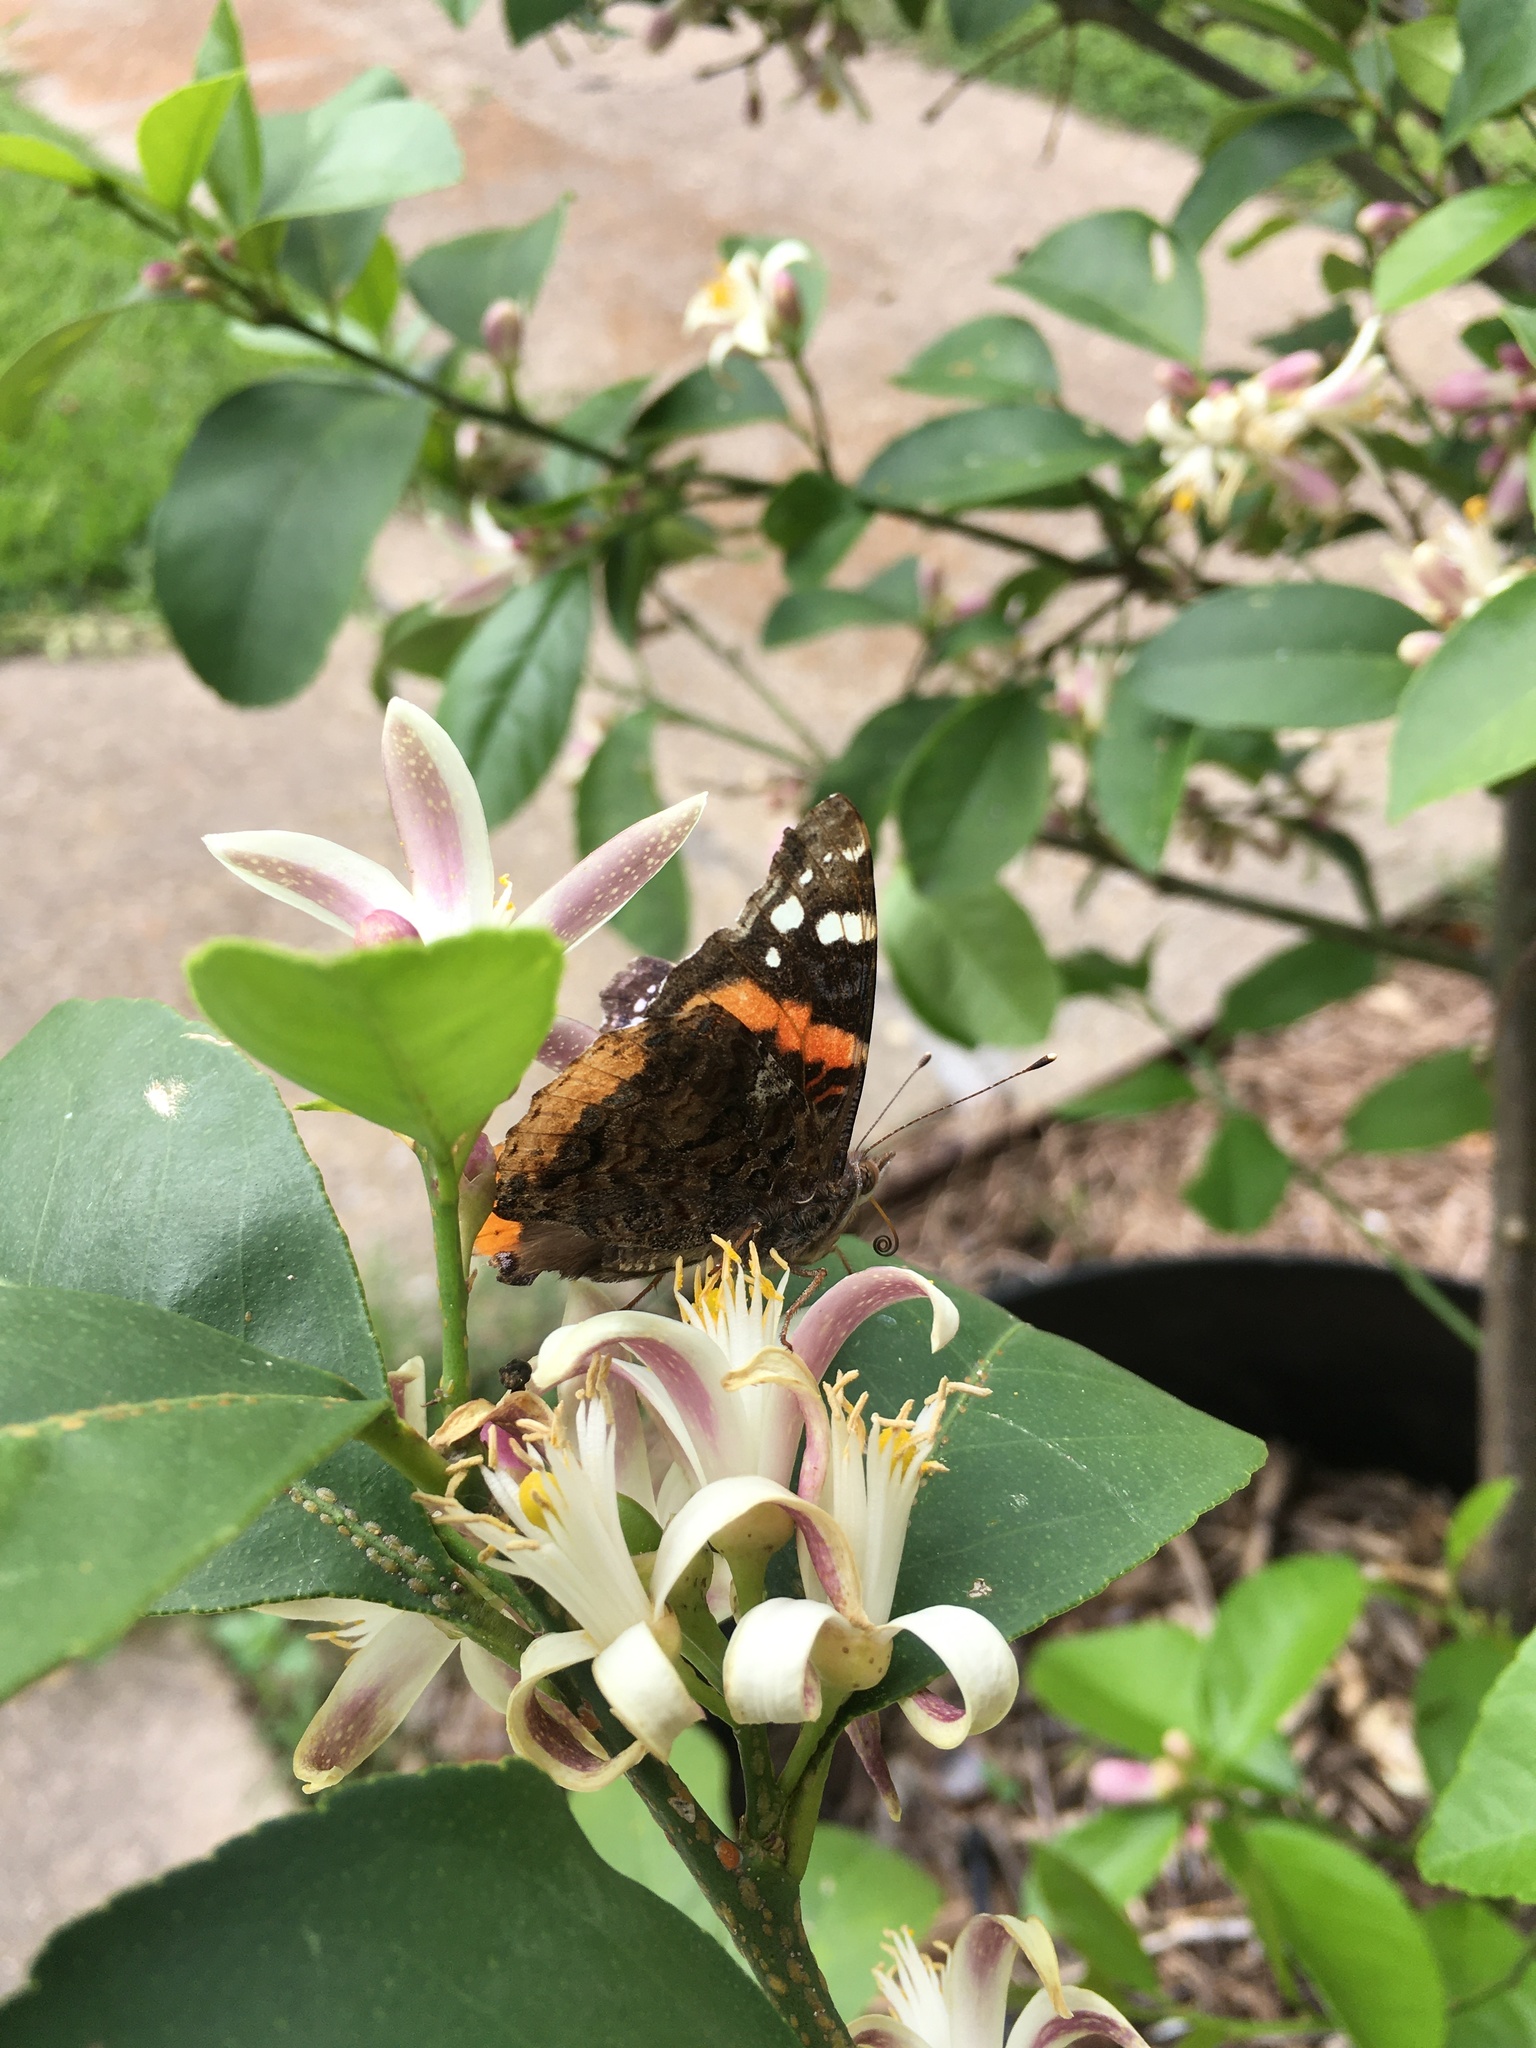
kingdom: Animalia
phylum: Arthropoda
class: Insecta
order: Lepidoptera
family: Nymphalidae
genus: Vanessa
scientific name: Vanessa atalanta
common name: Red admiral
